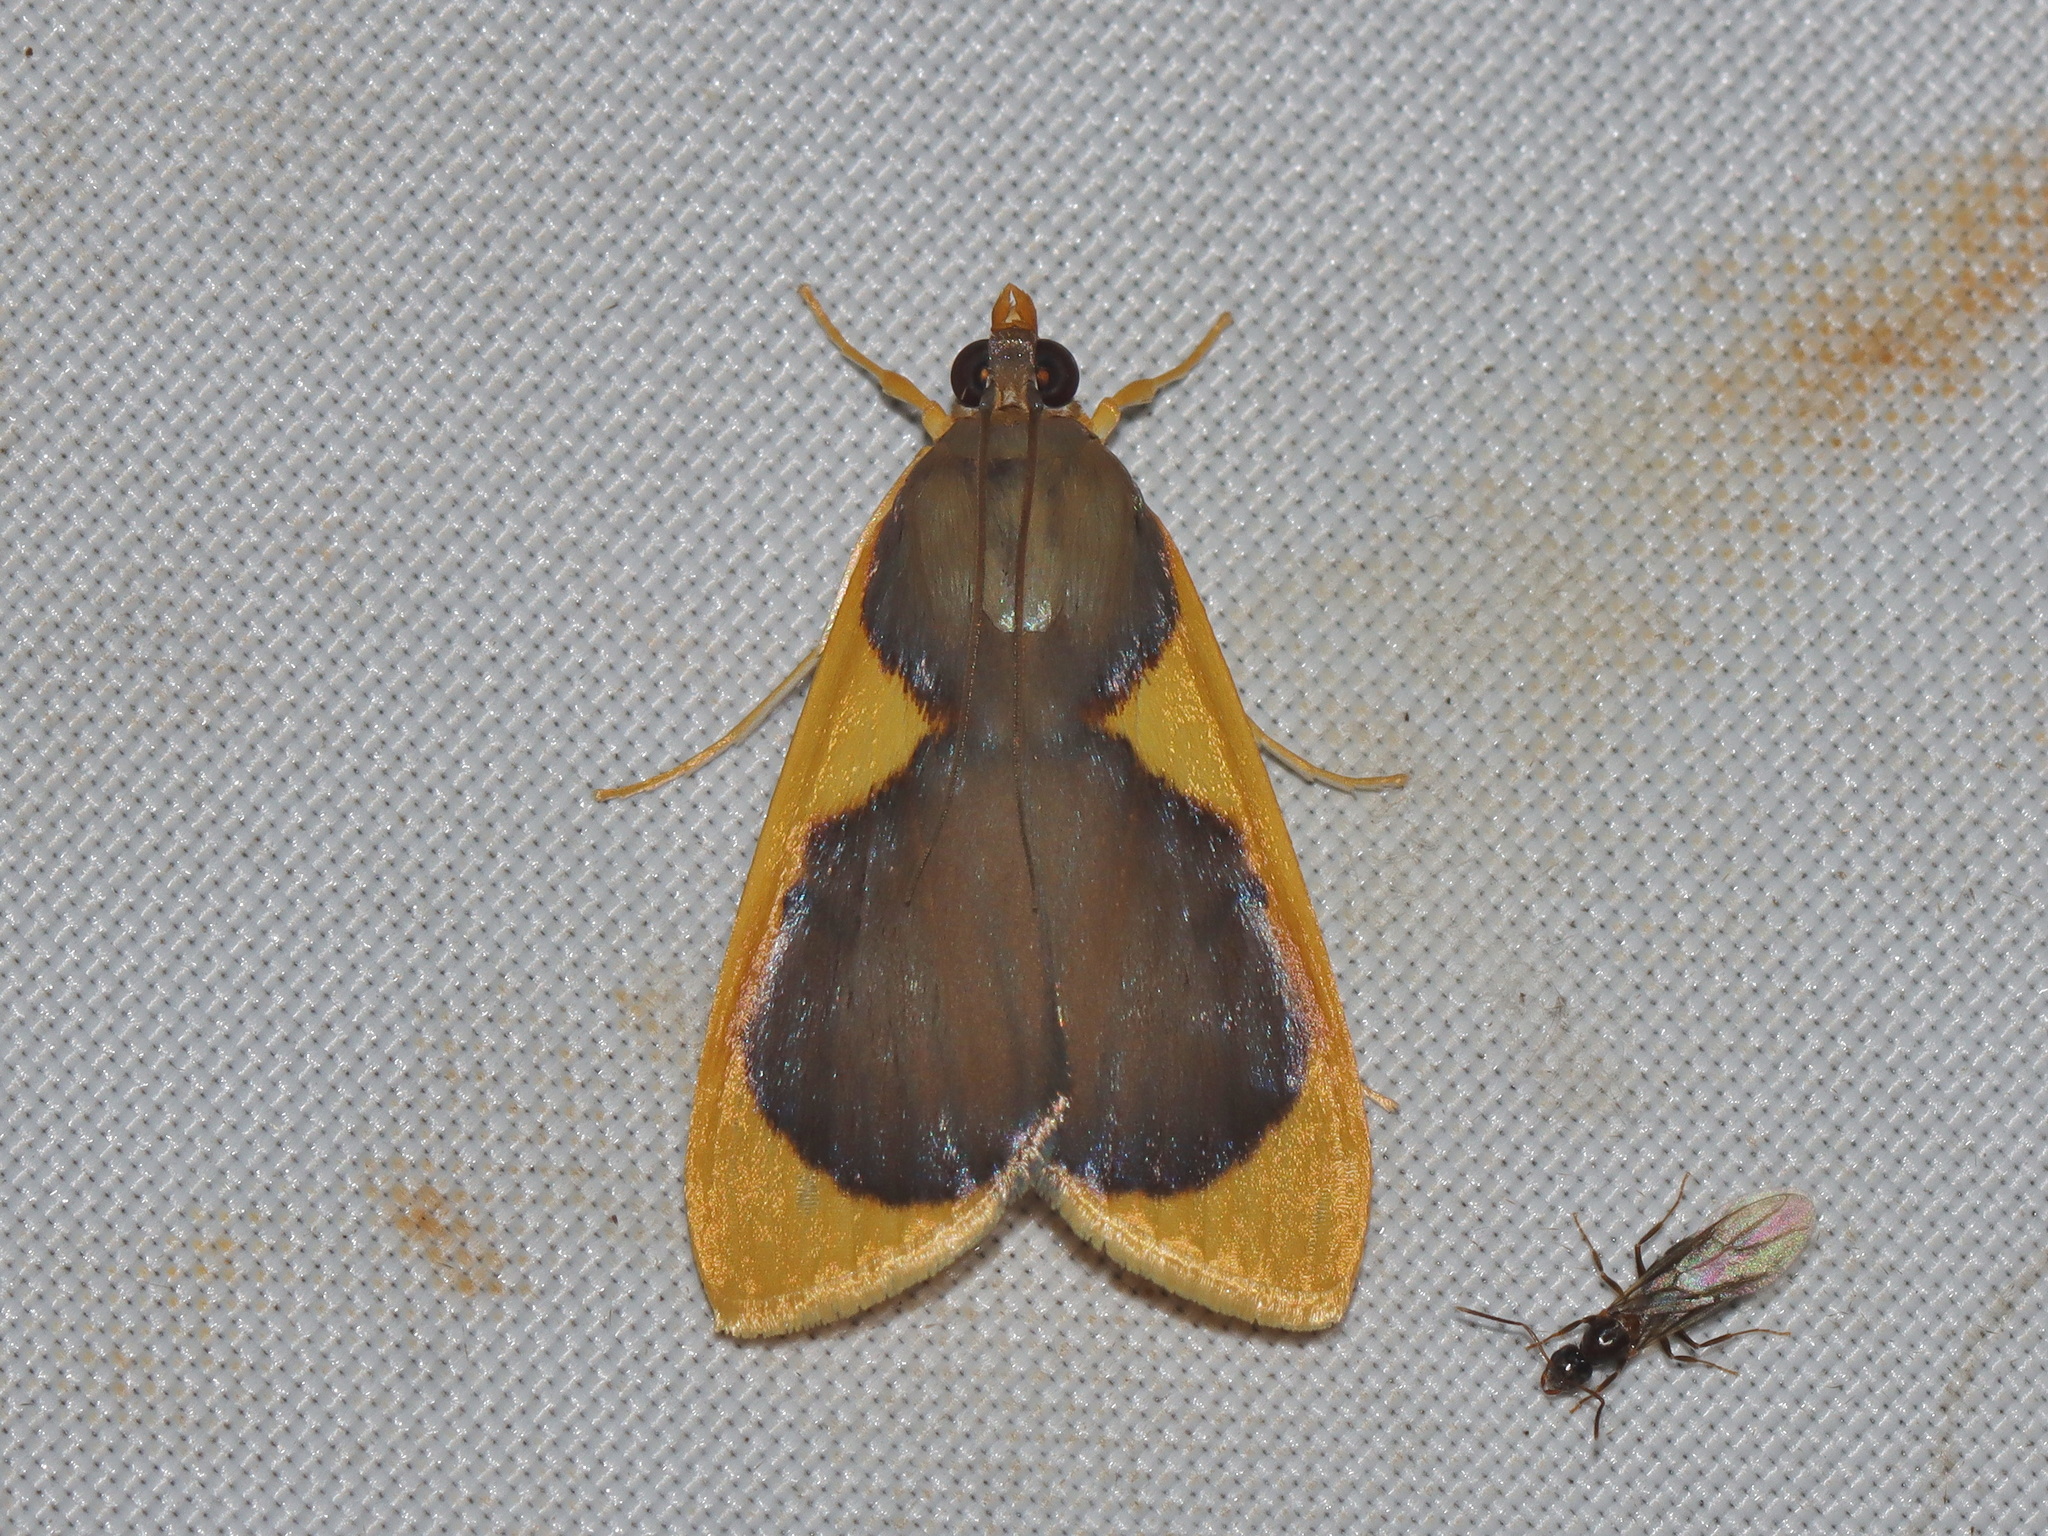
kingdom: Animalia
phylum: Arthropoda
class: Insecta
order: Lepidoptera
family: Crambidae
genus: Prooedema
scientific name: Prooedema inscisalis
